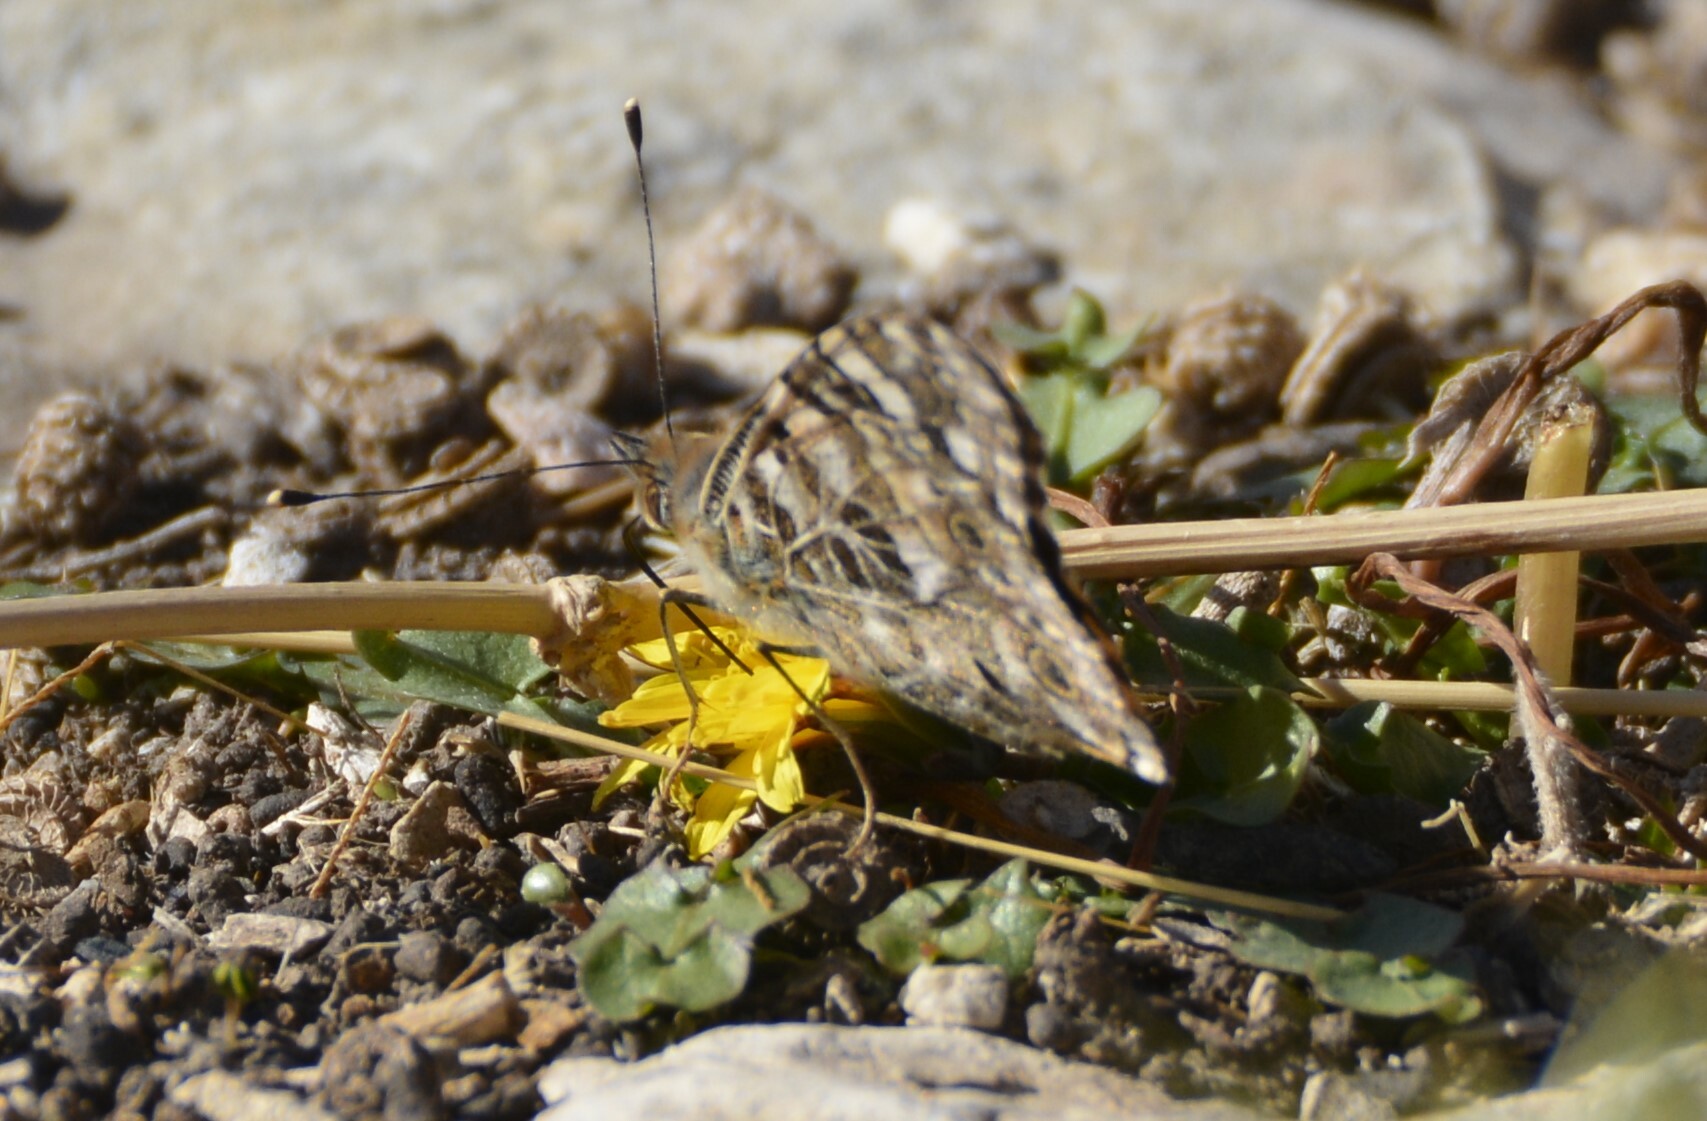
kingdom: Animalia
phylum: Arthropoda
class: Insecta
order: Lepidoptera
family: Nymphalidae
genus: Vanessa
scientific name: Vanessa cardui
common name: Painted lady
